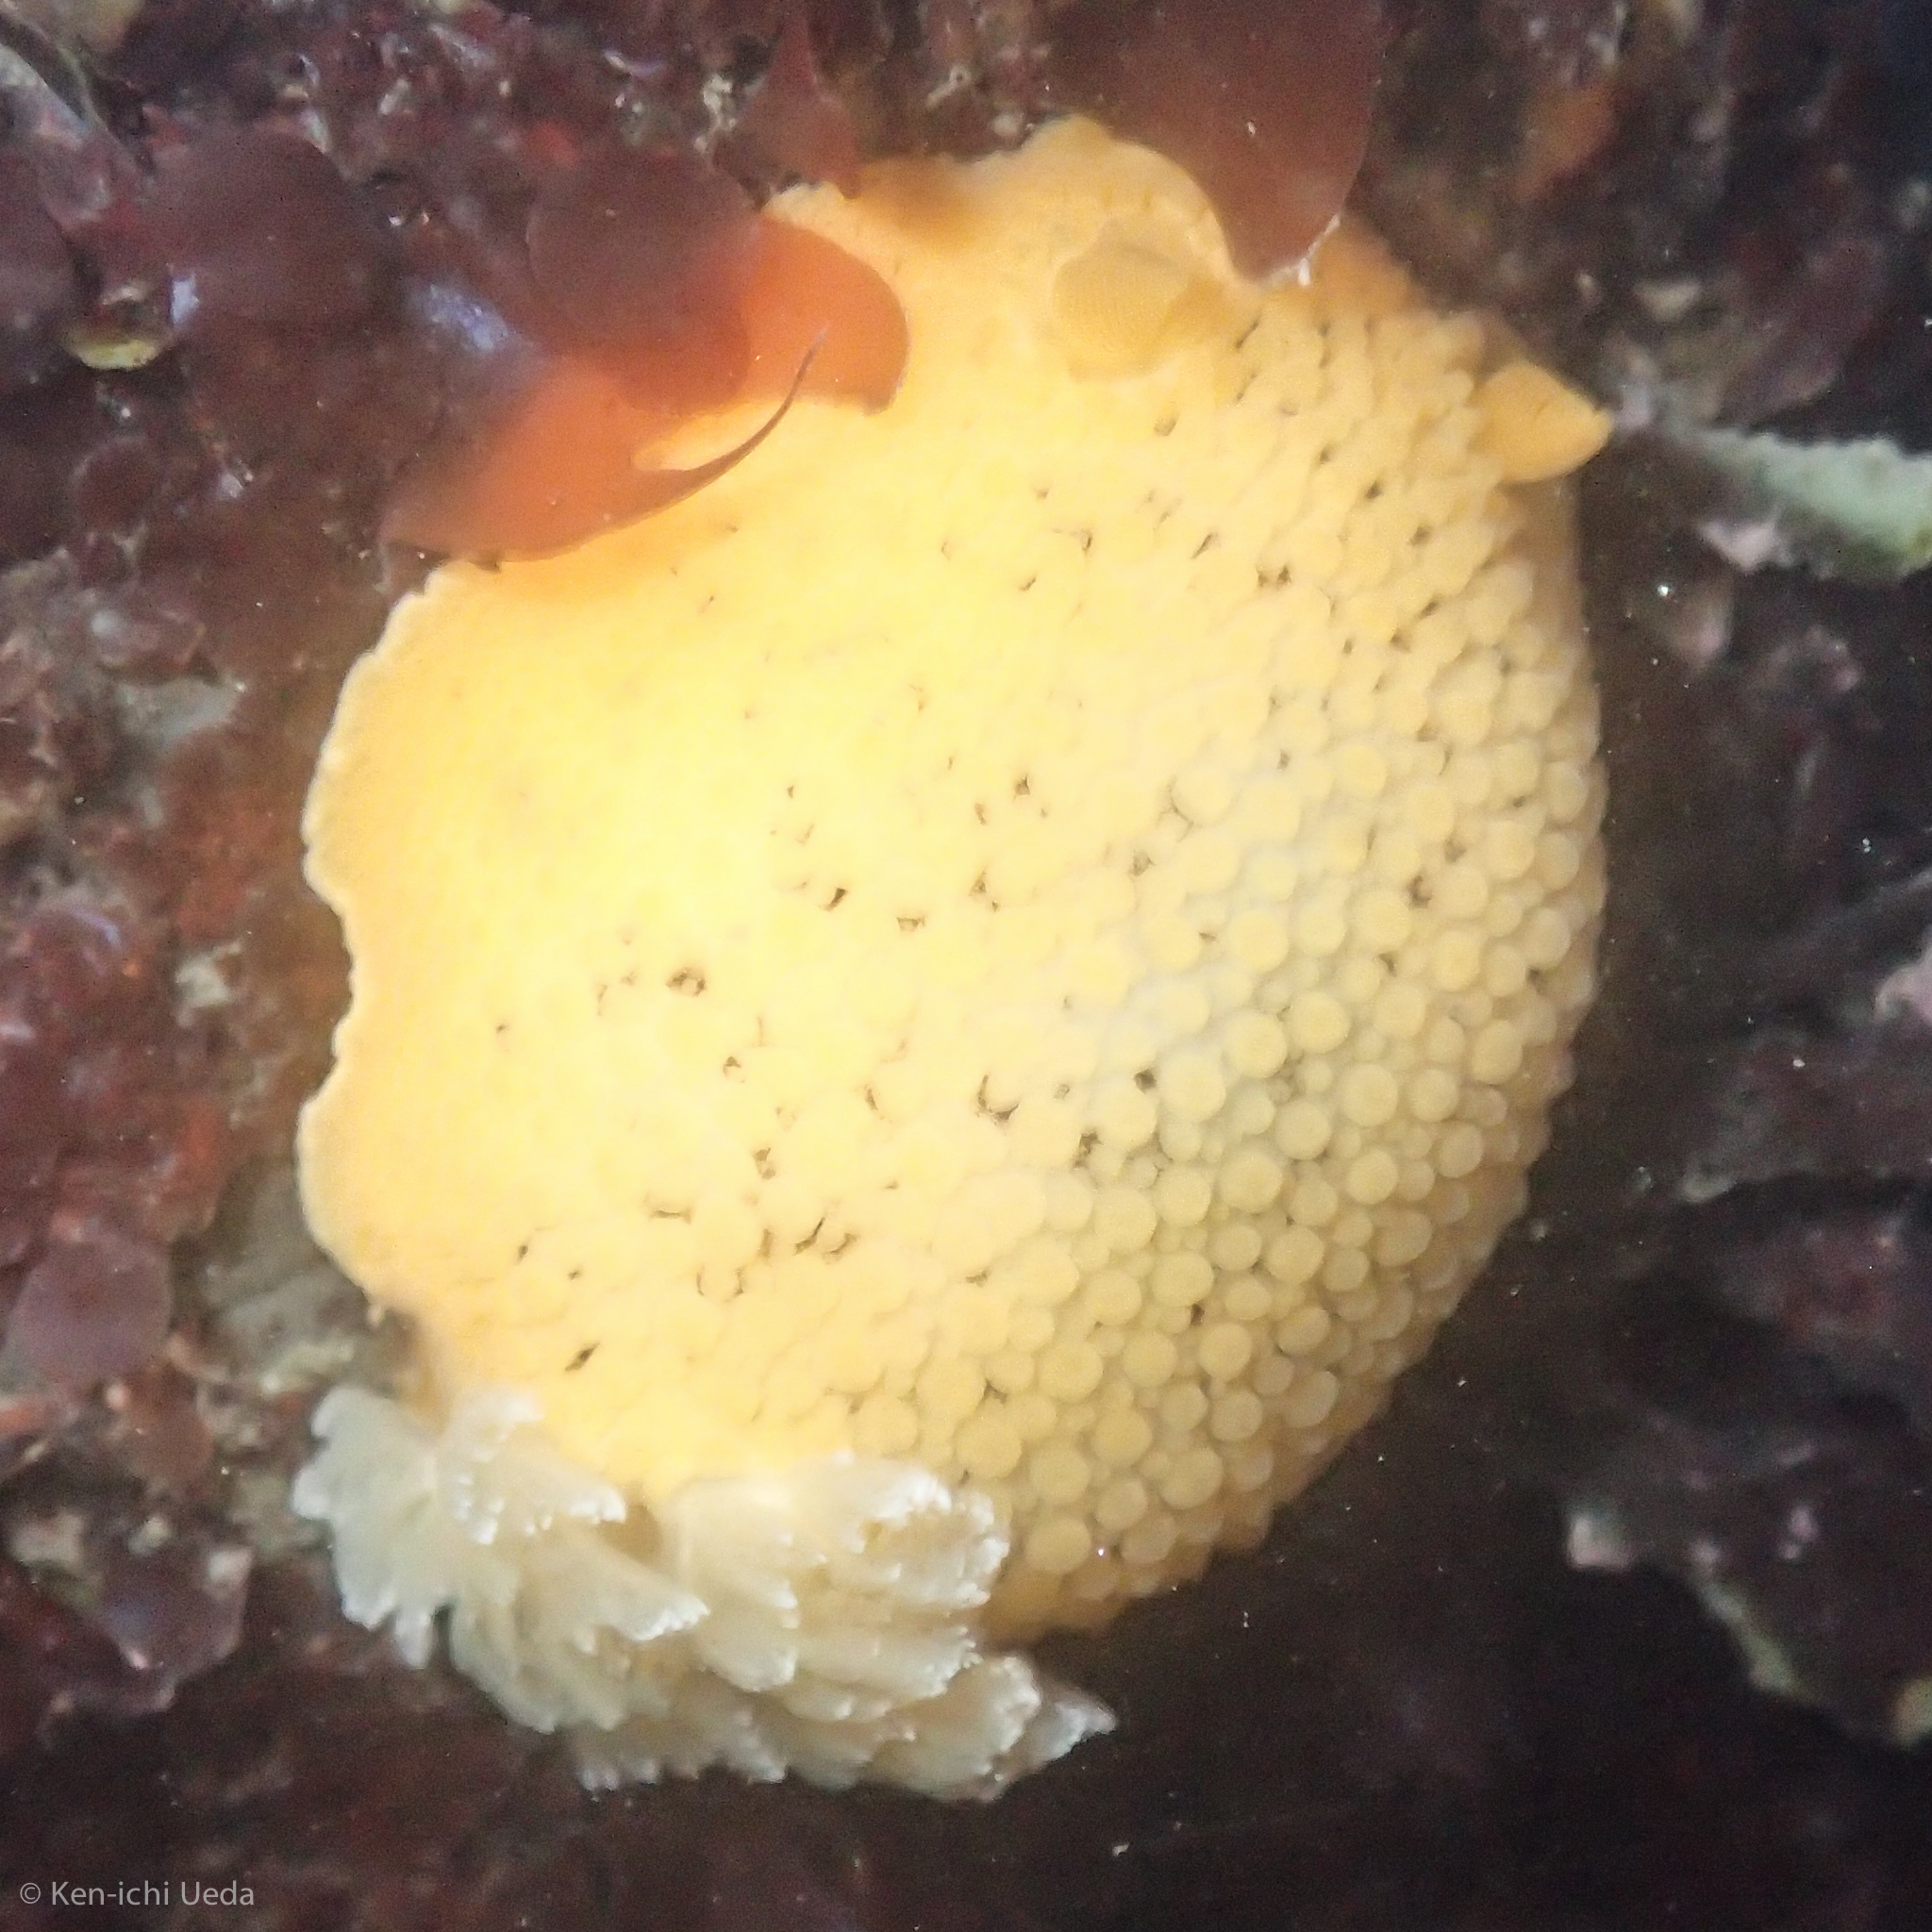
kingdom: Animalia
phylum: Mollusca
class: Gastropoda
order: Nudibranchia
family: Discodorididae
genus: Peltodoris
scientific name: Peltodoris nobilis
